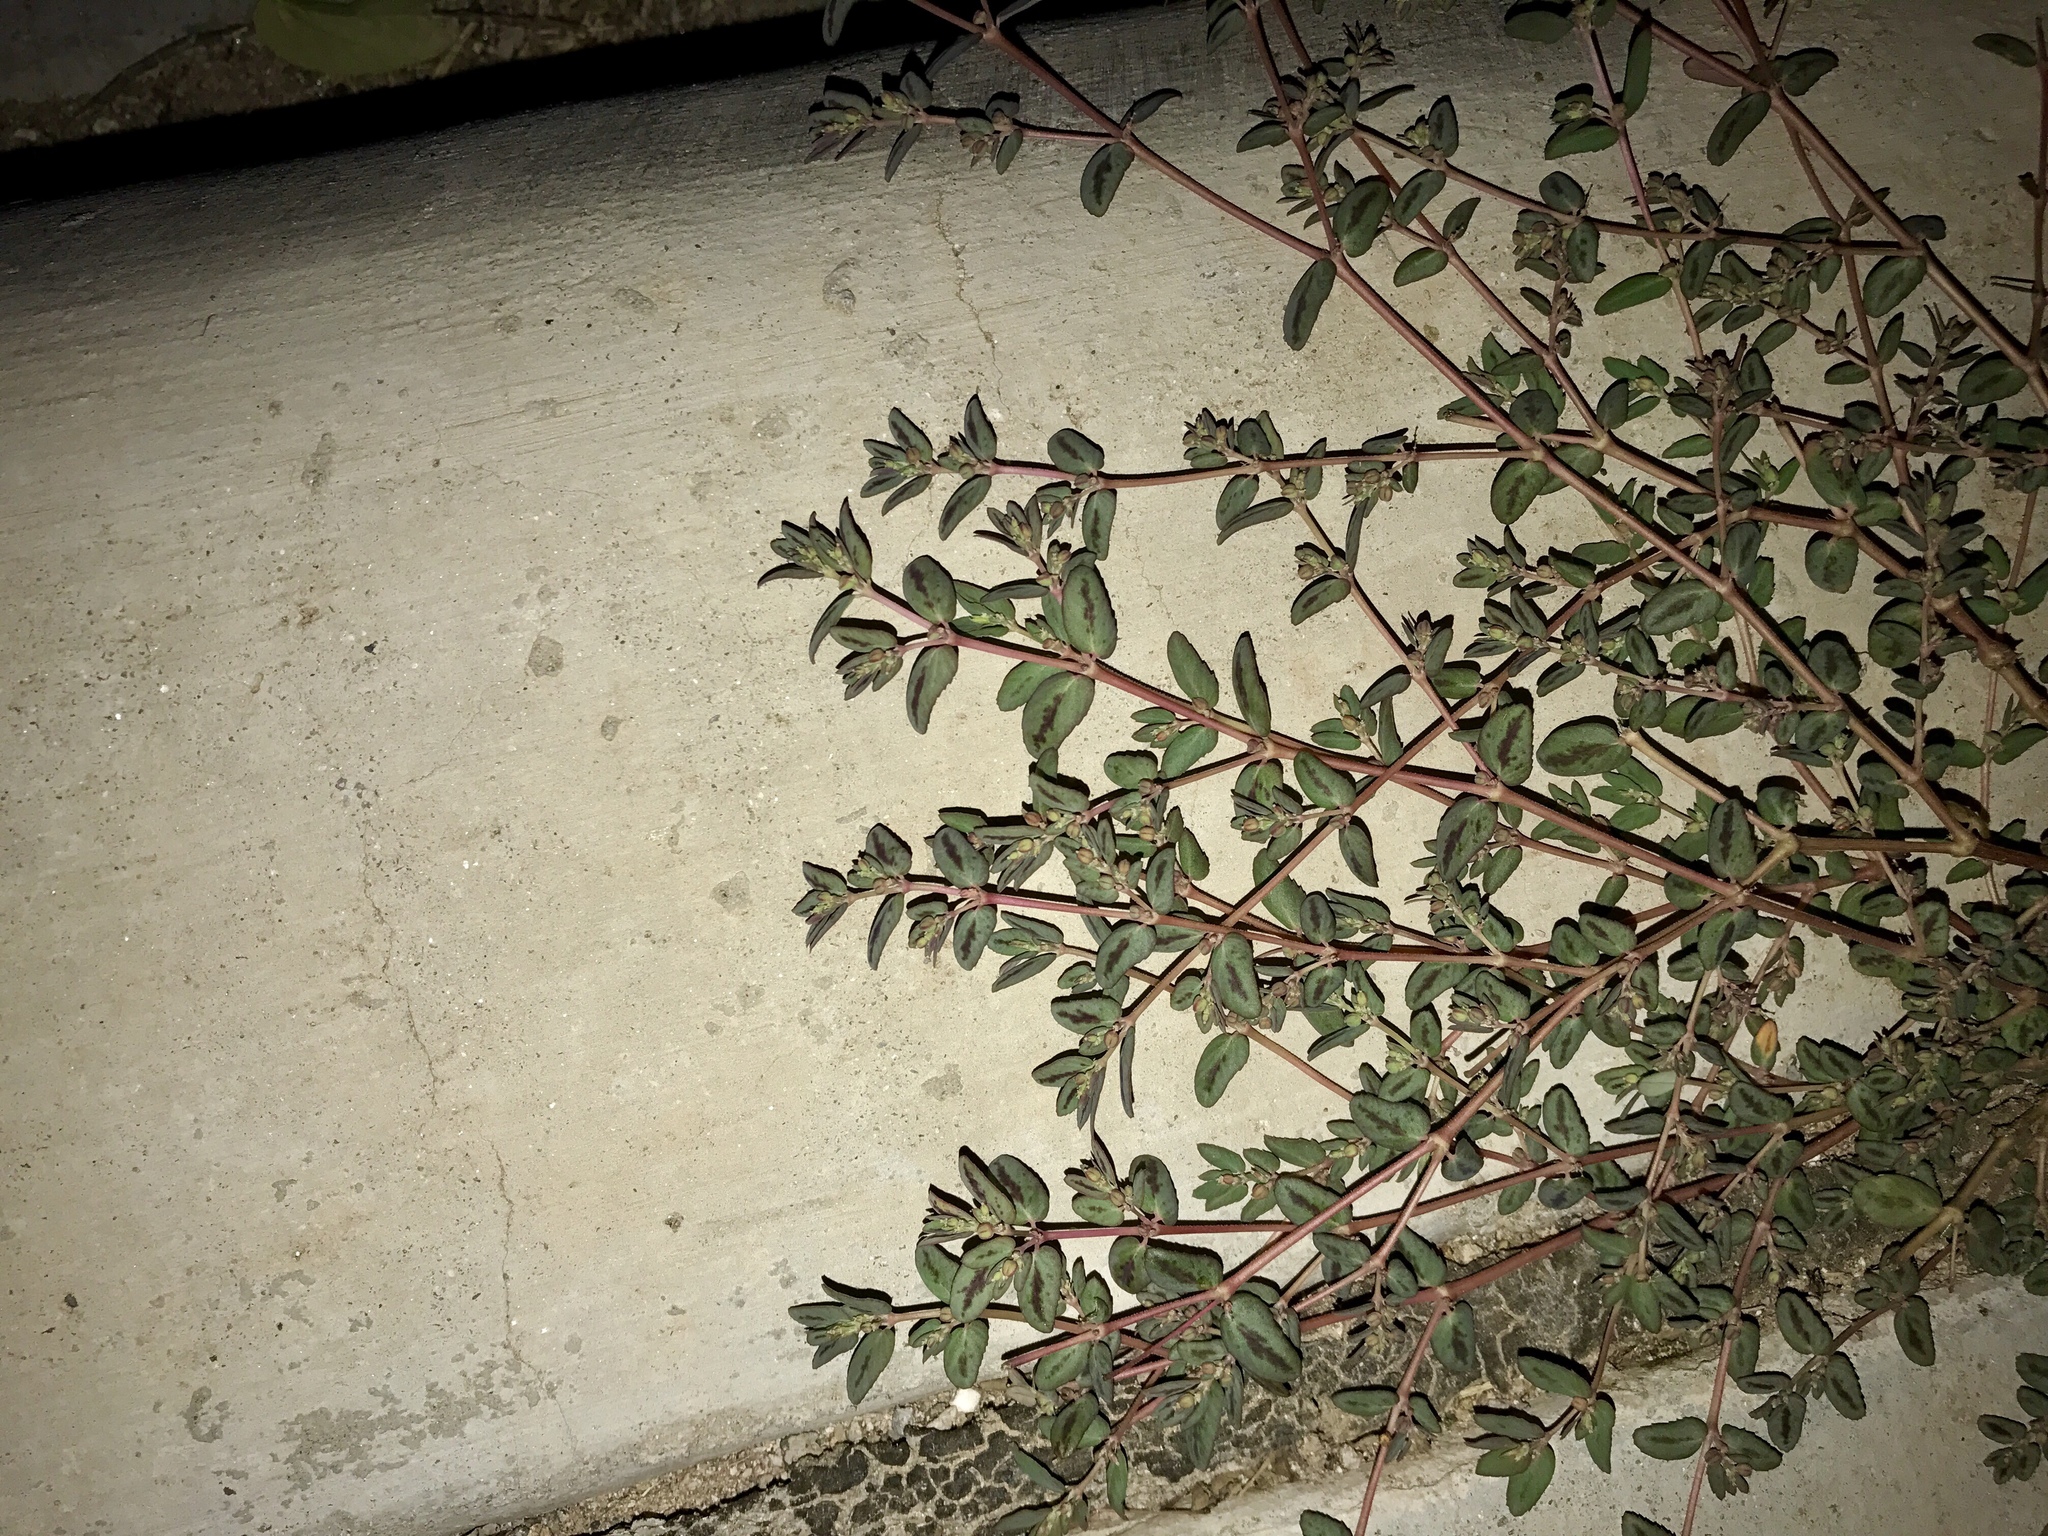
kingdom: Plantae
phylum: Tracheophyta
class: Magnoliopsida
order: Malpighiales
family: Euphorbiaceae
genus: Euphorbia
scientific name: Euphorbia abramsiana
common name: Abram's spurge
